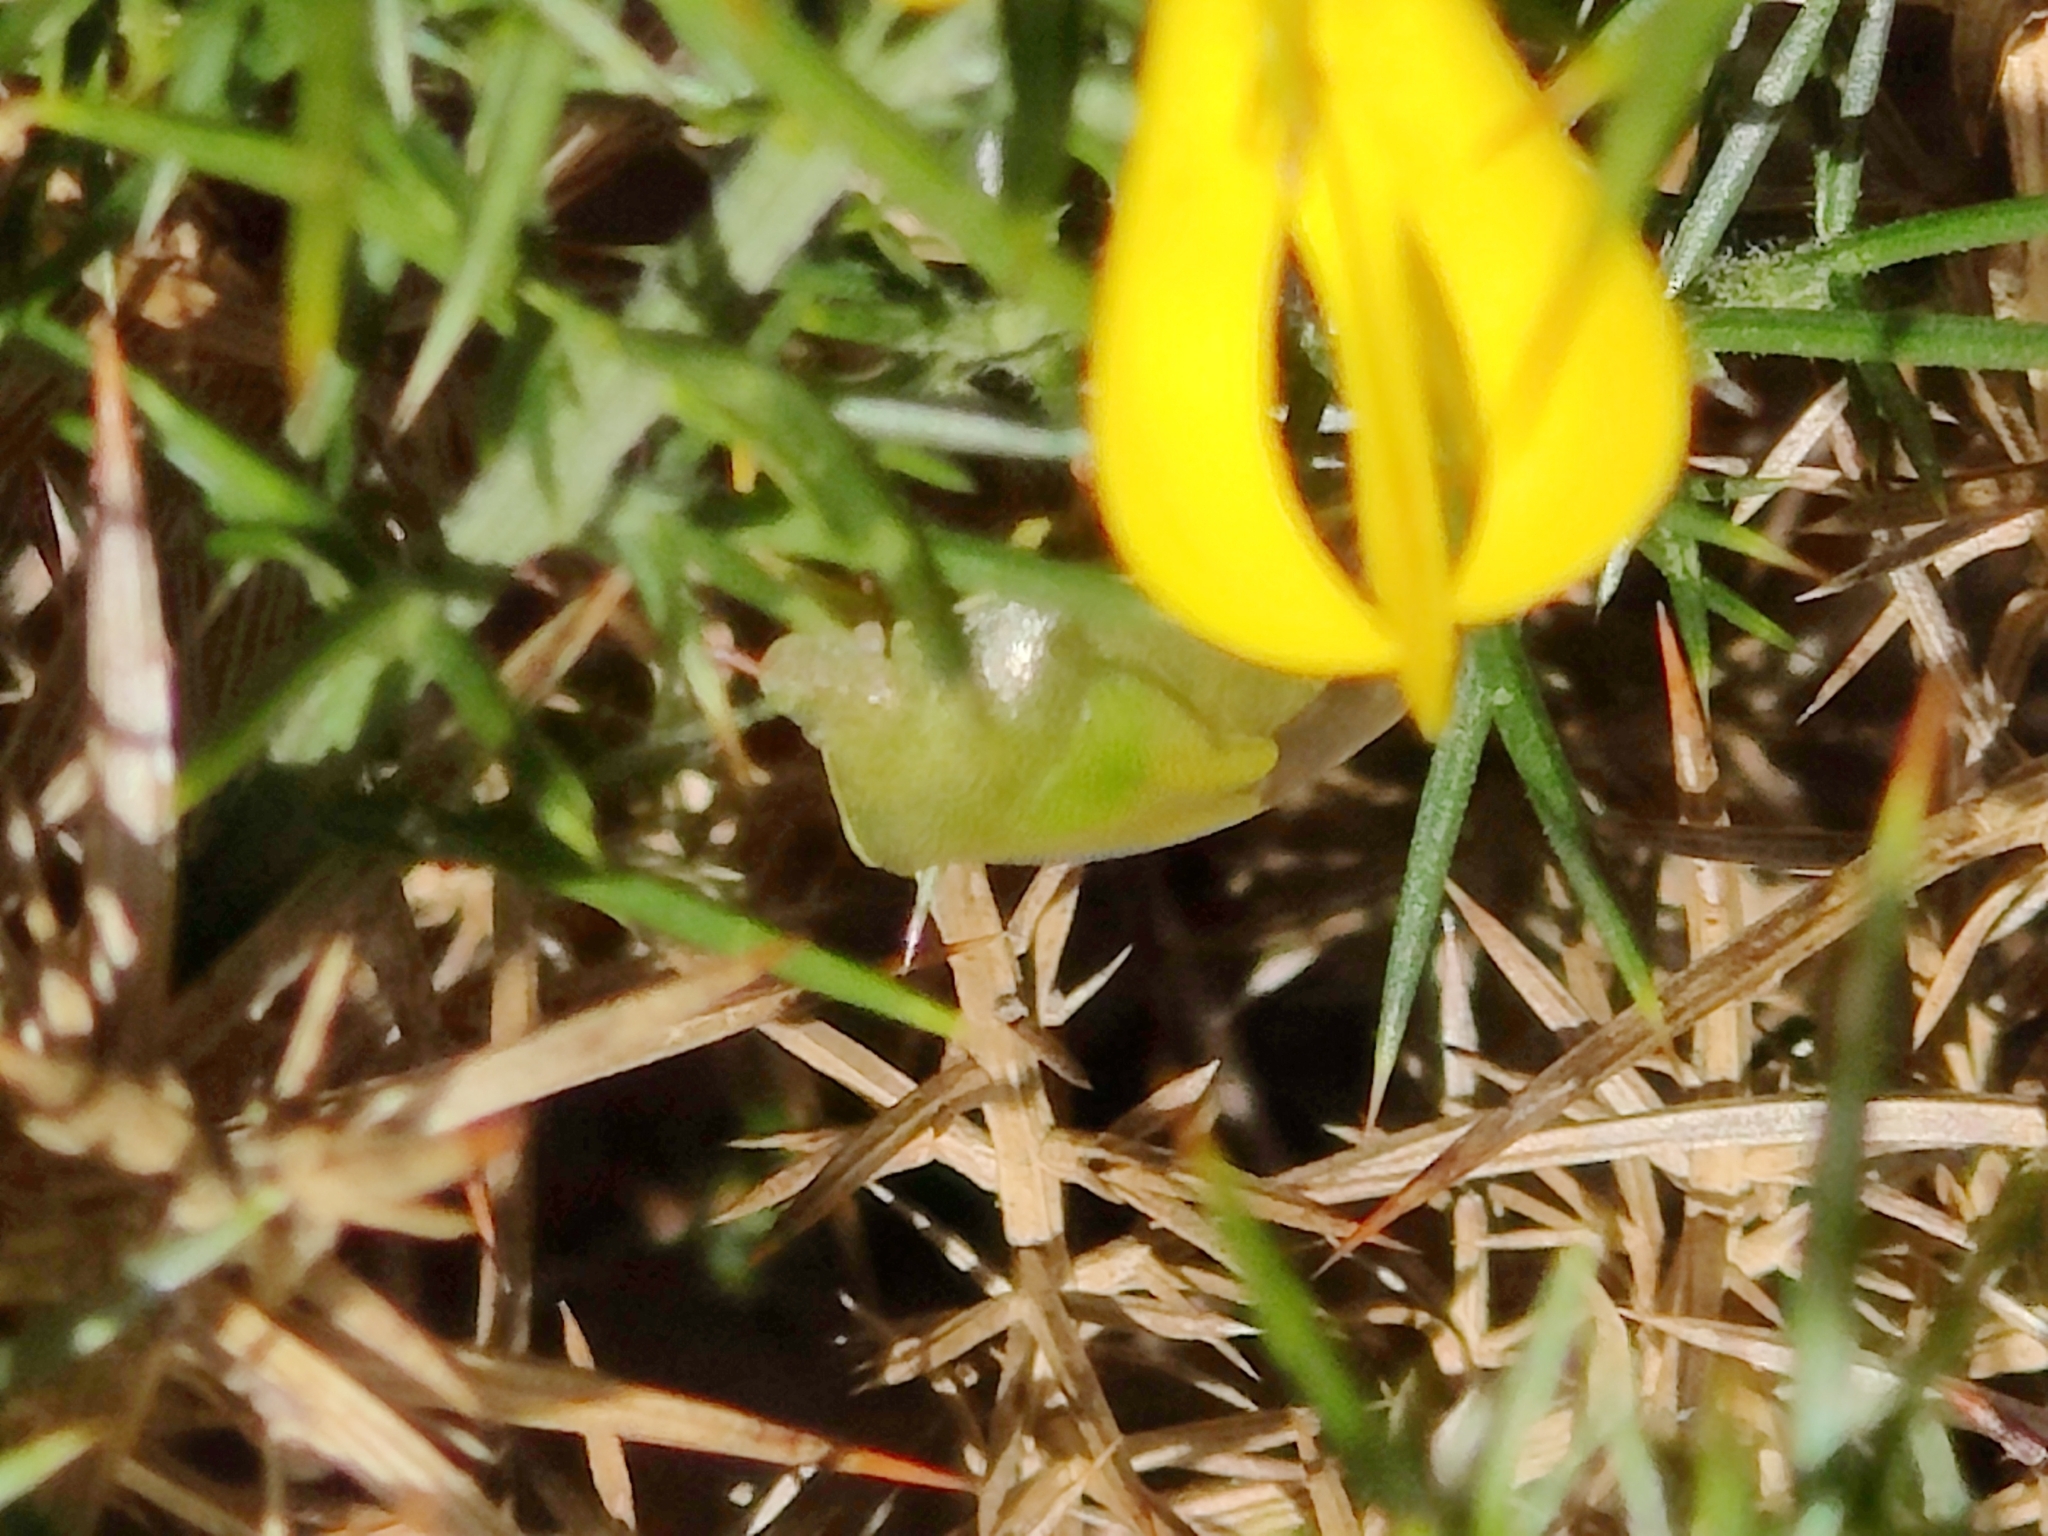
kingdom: Animalia
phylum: Arthropoda
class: Insecta
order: Hemiptera
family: Pentatomidae
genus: Piezodorus
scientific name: Piezodorus lituratus
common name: Stink bug
